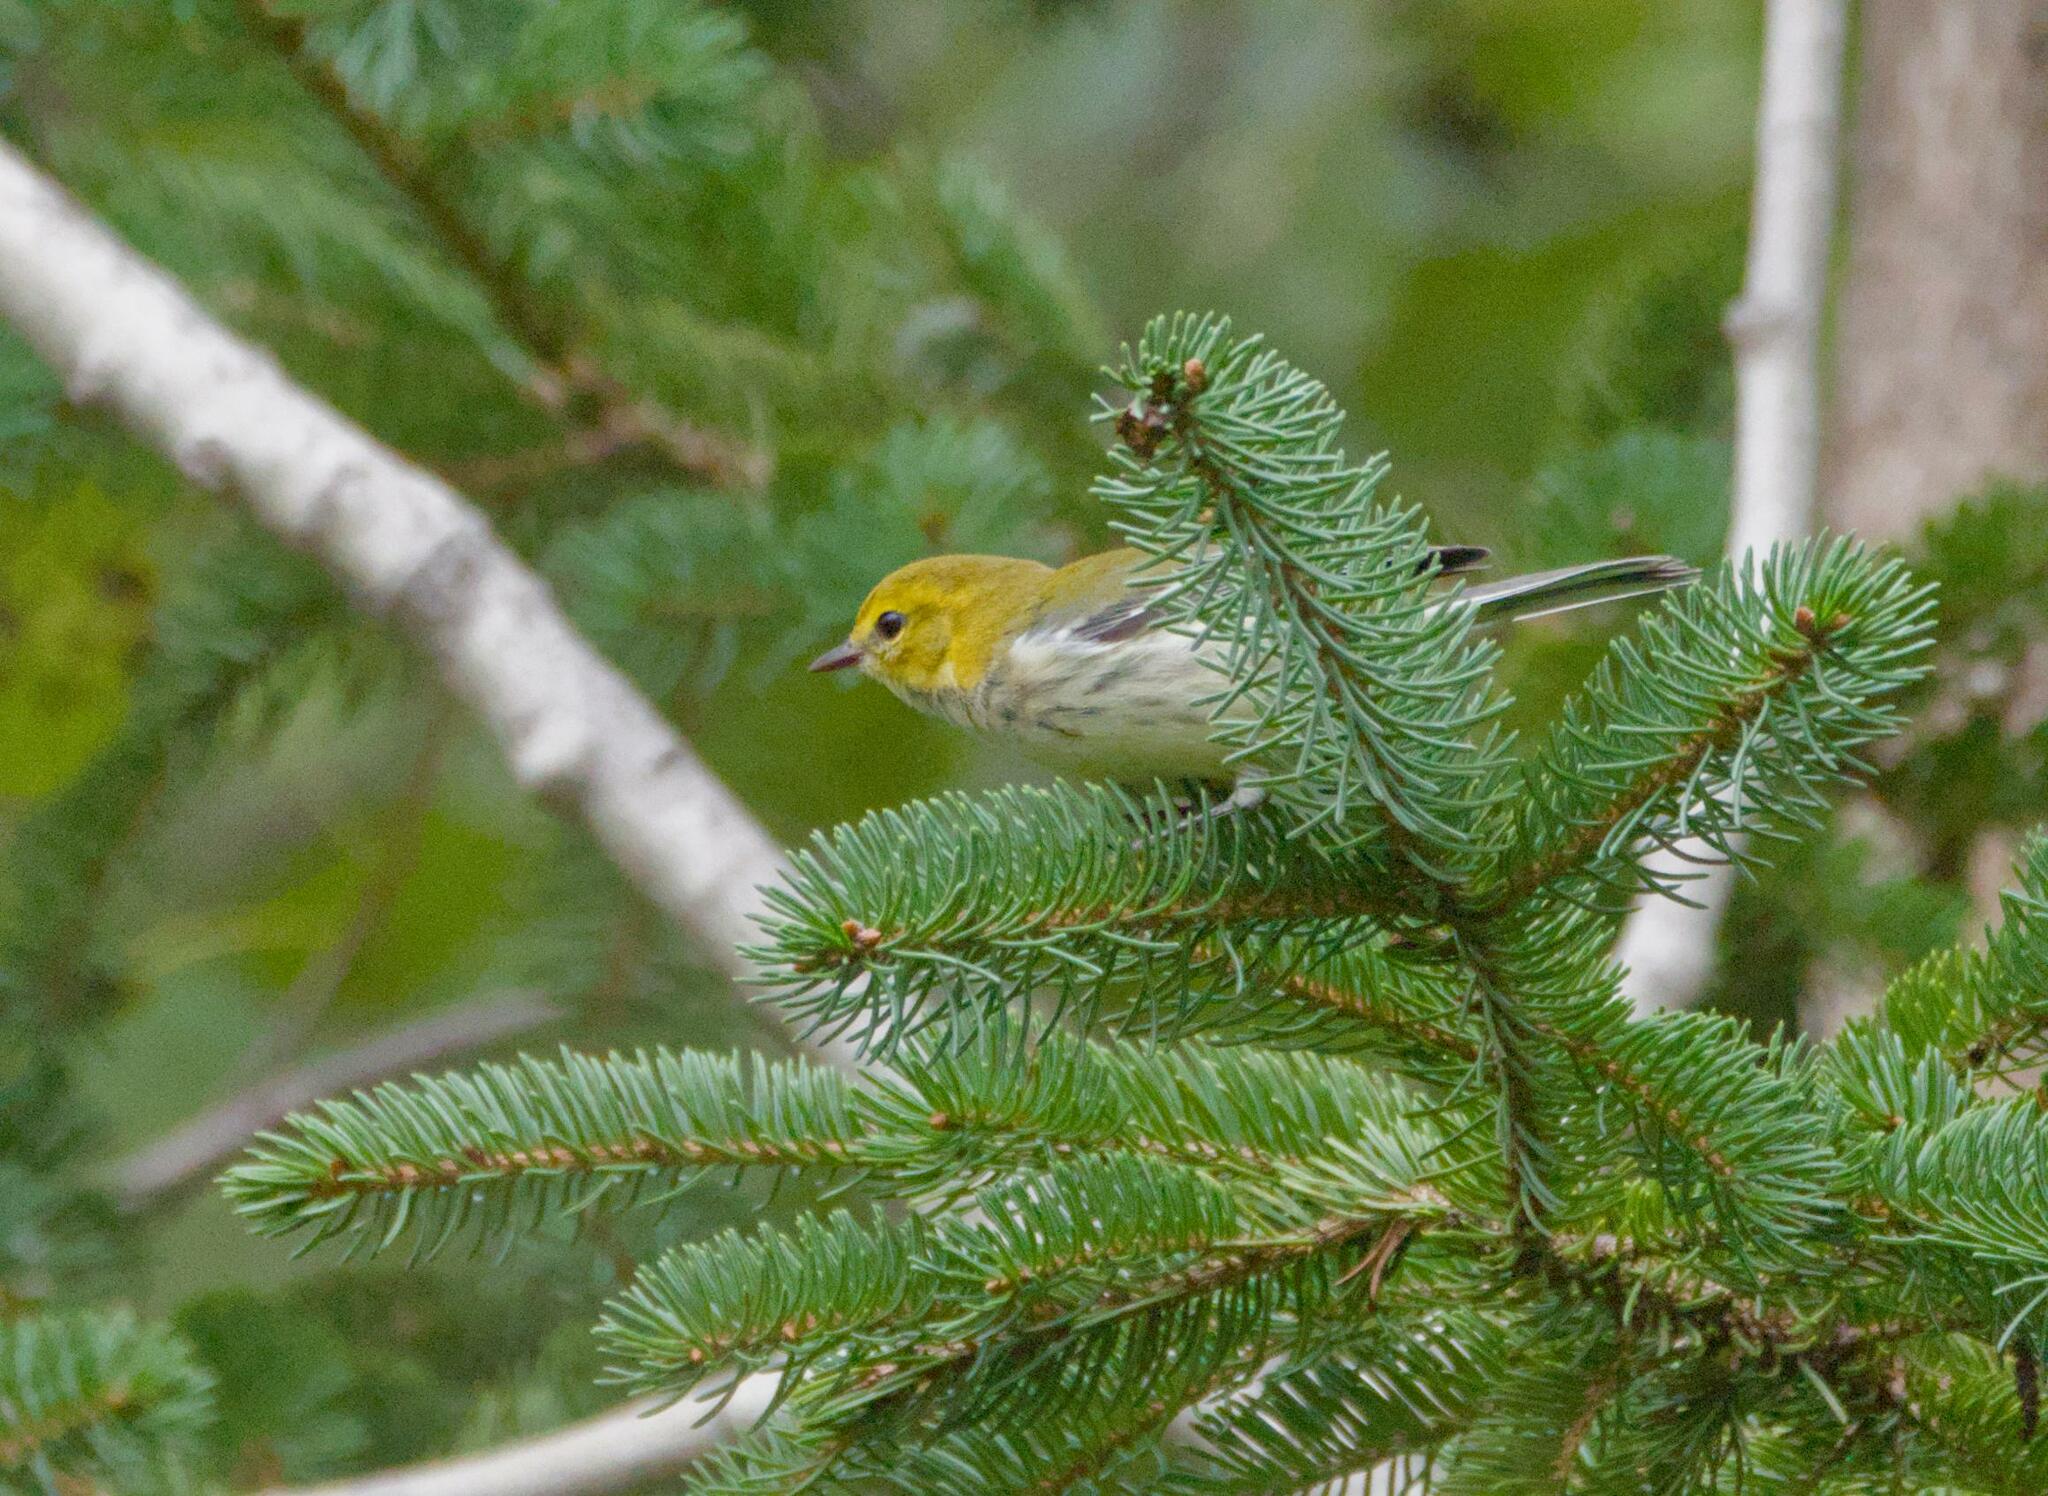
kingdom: Animalia
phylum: Chordata
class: Aves
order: Passeriformes
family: Parulidae
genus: Setophaga
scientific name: Setophaga virens
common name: Black-throated green warbler
